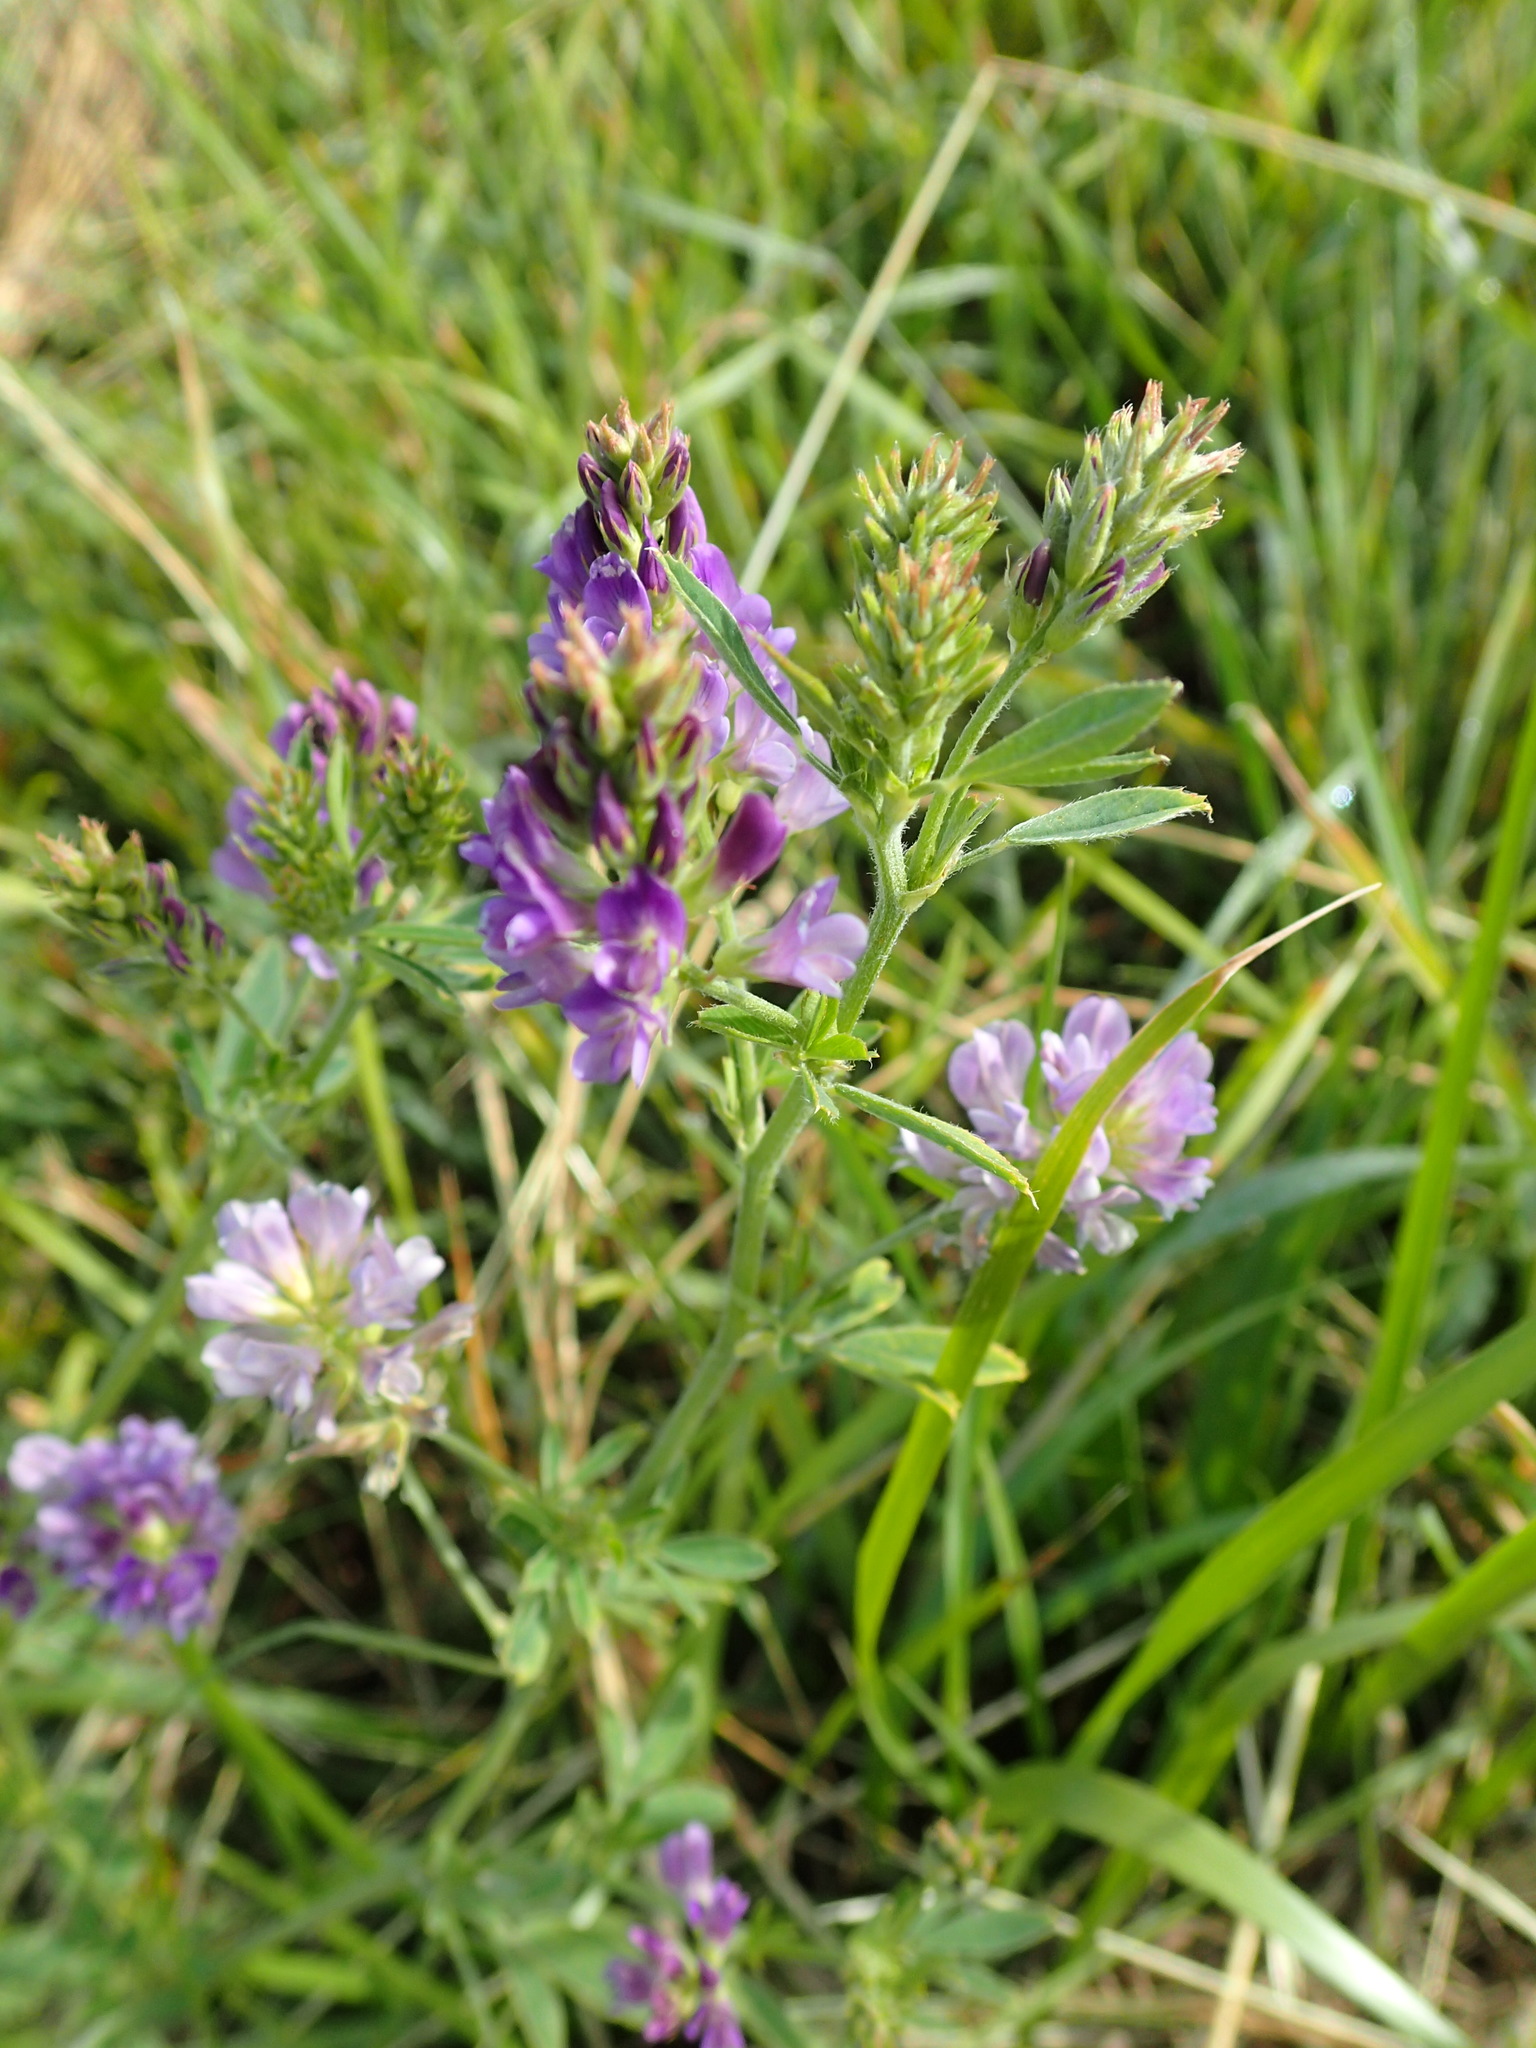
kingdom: Plantae
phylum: Tracheophyta
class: Magnoliopsida
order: Fabales
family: Fabaceae
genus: Medicago
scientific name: Medicago sativa
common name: Alfalfa
